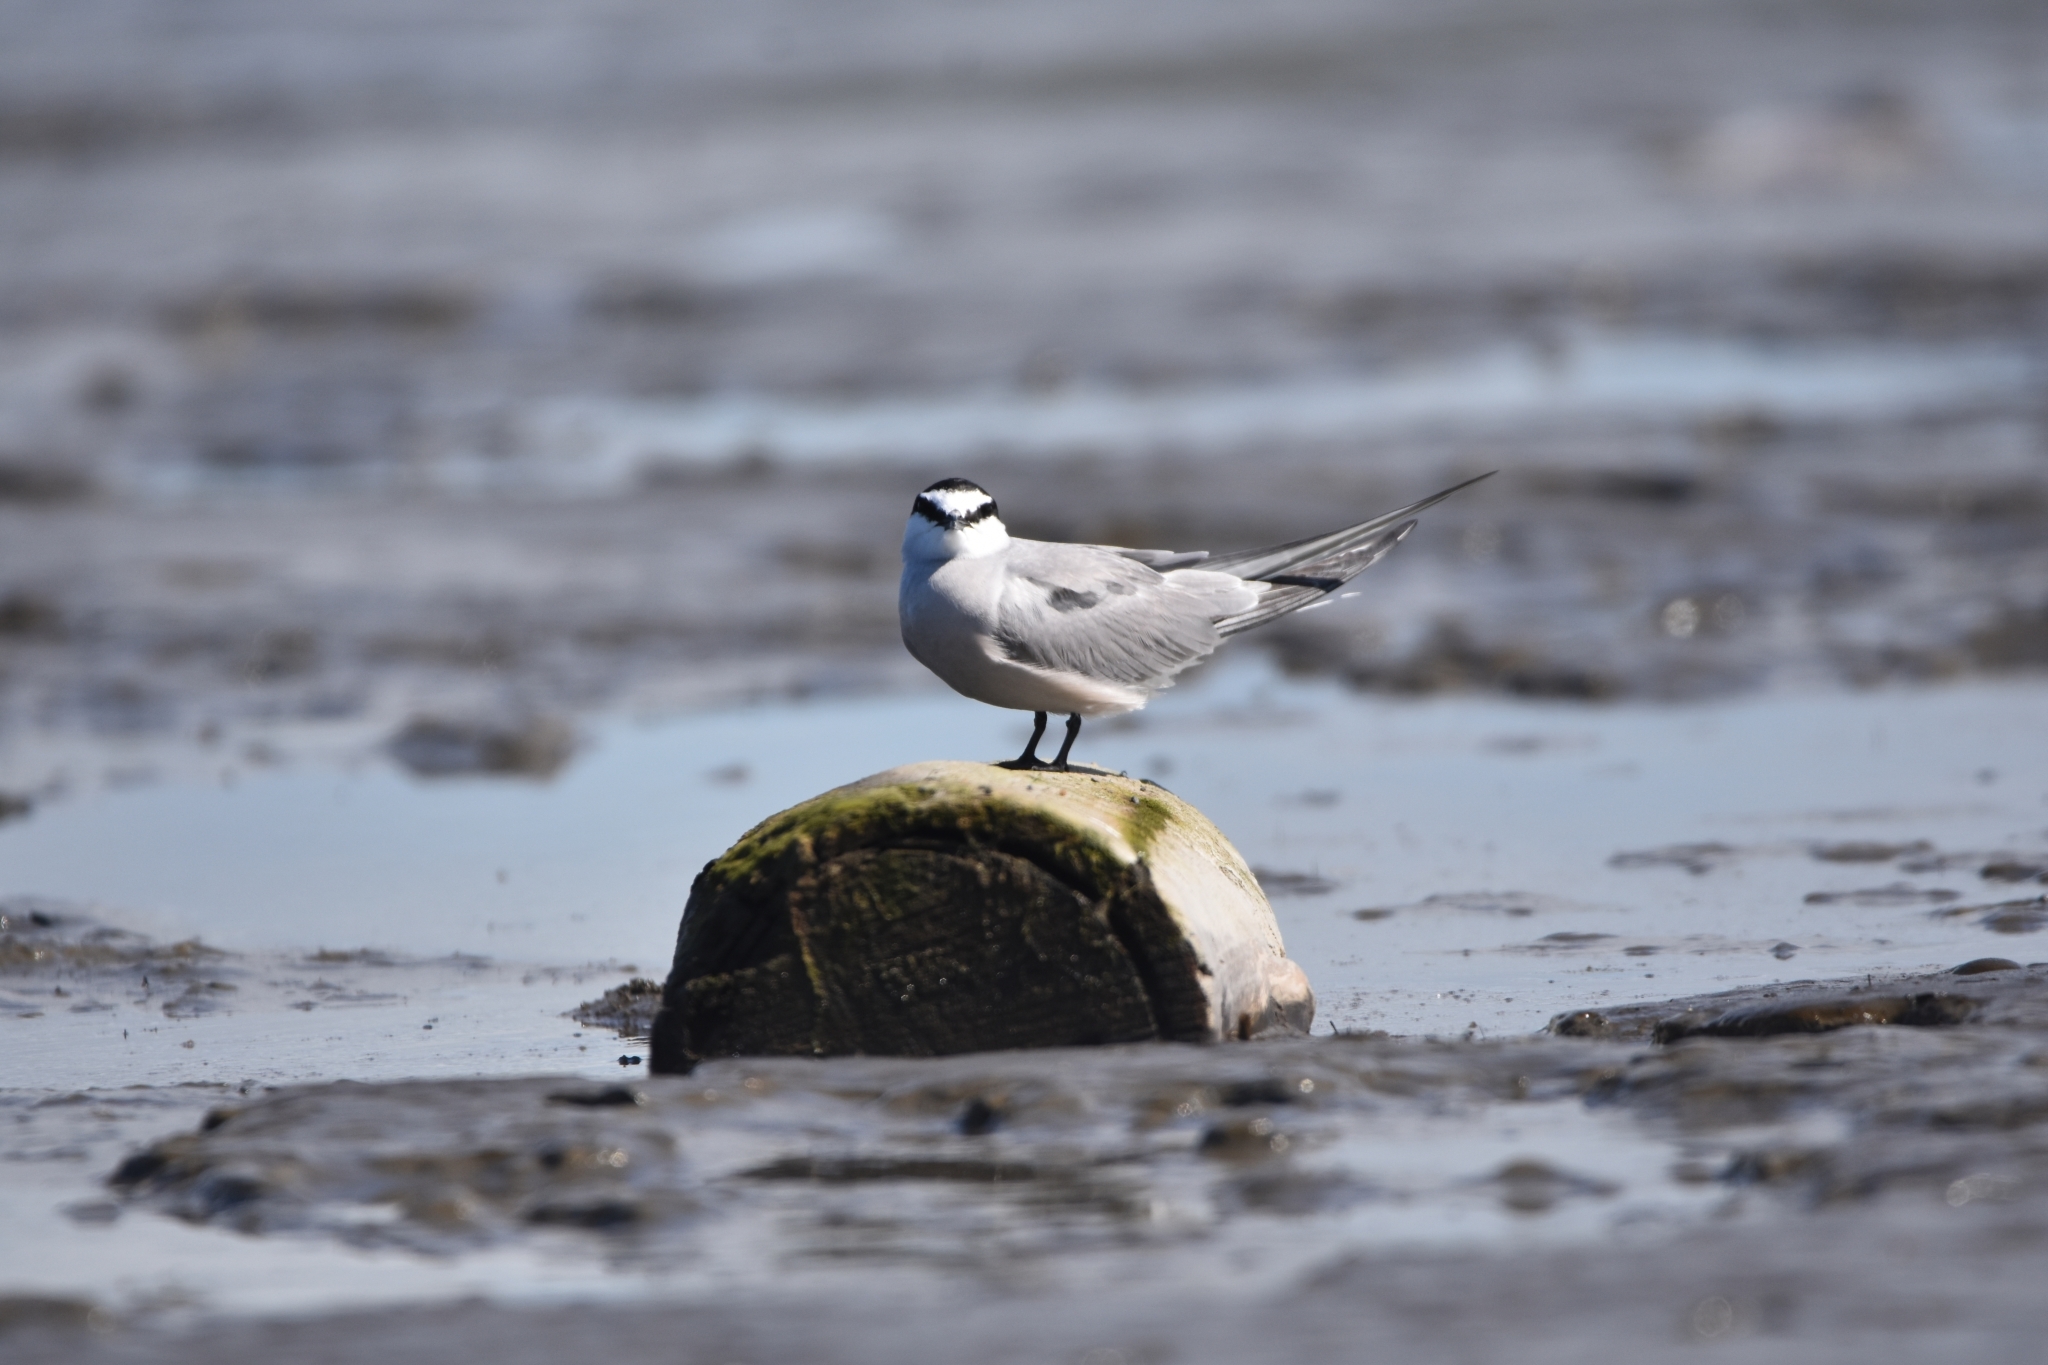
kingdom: Animalia
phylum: Chordata
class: Aves
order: Charadriiformes
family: Laridae
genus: Onychoprion
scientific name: Onychoprion aleuticus
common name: Aleutian tern
